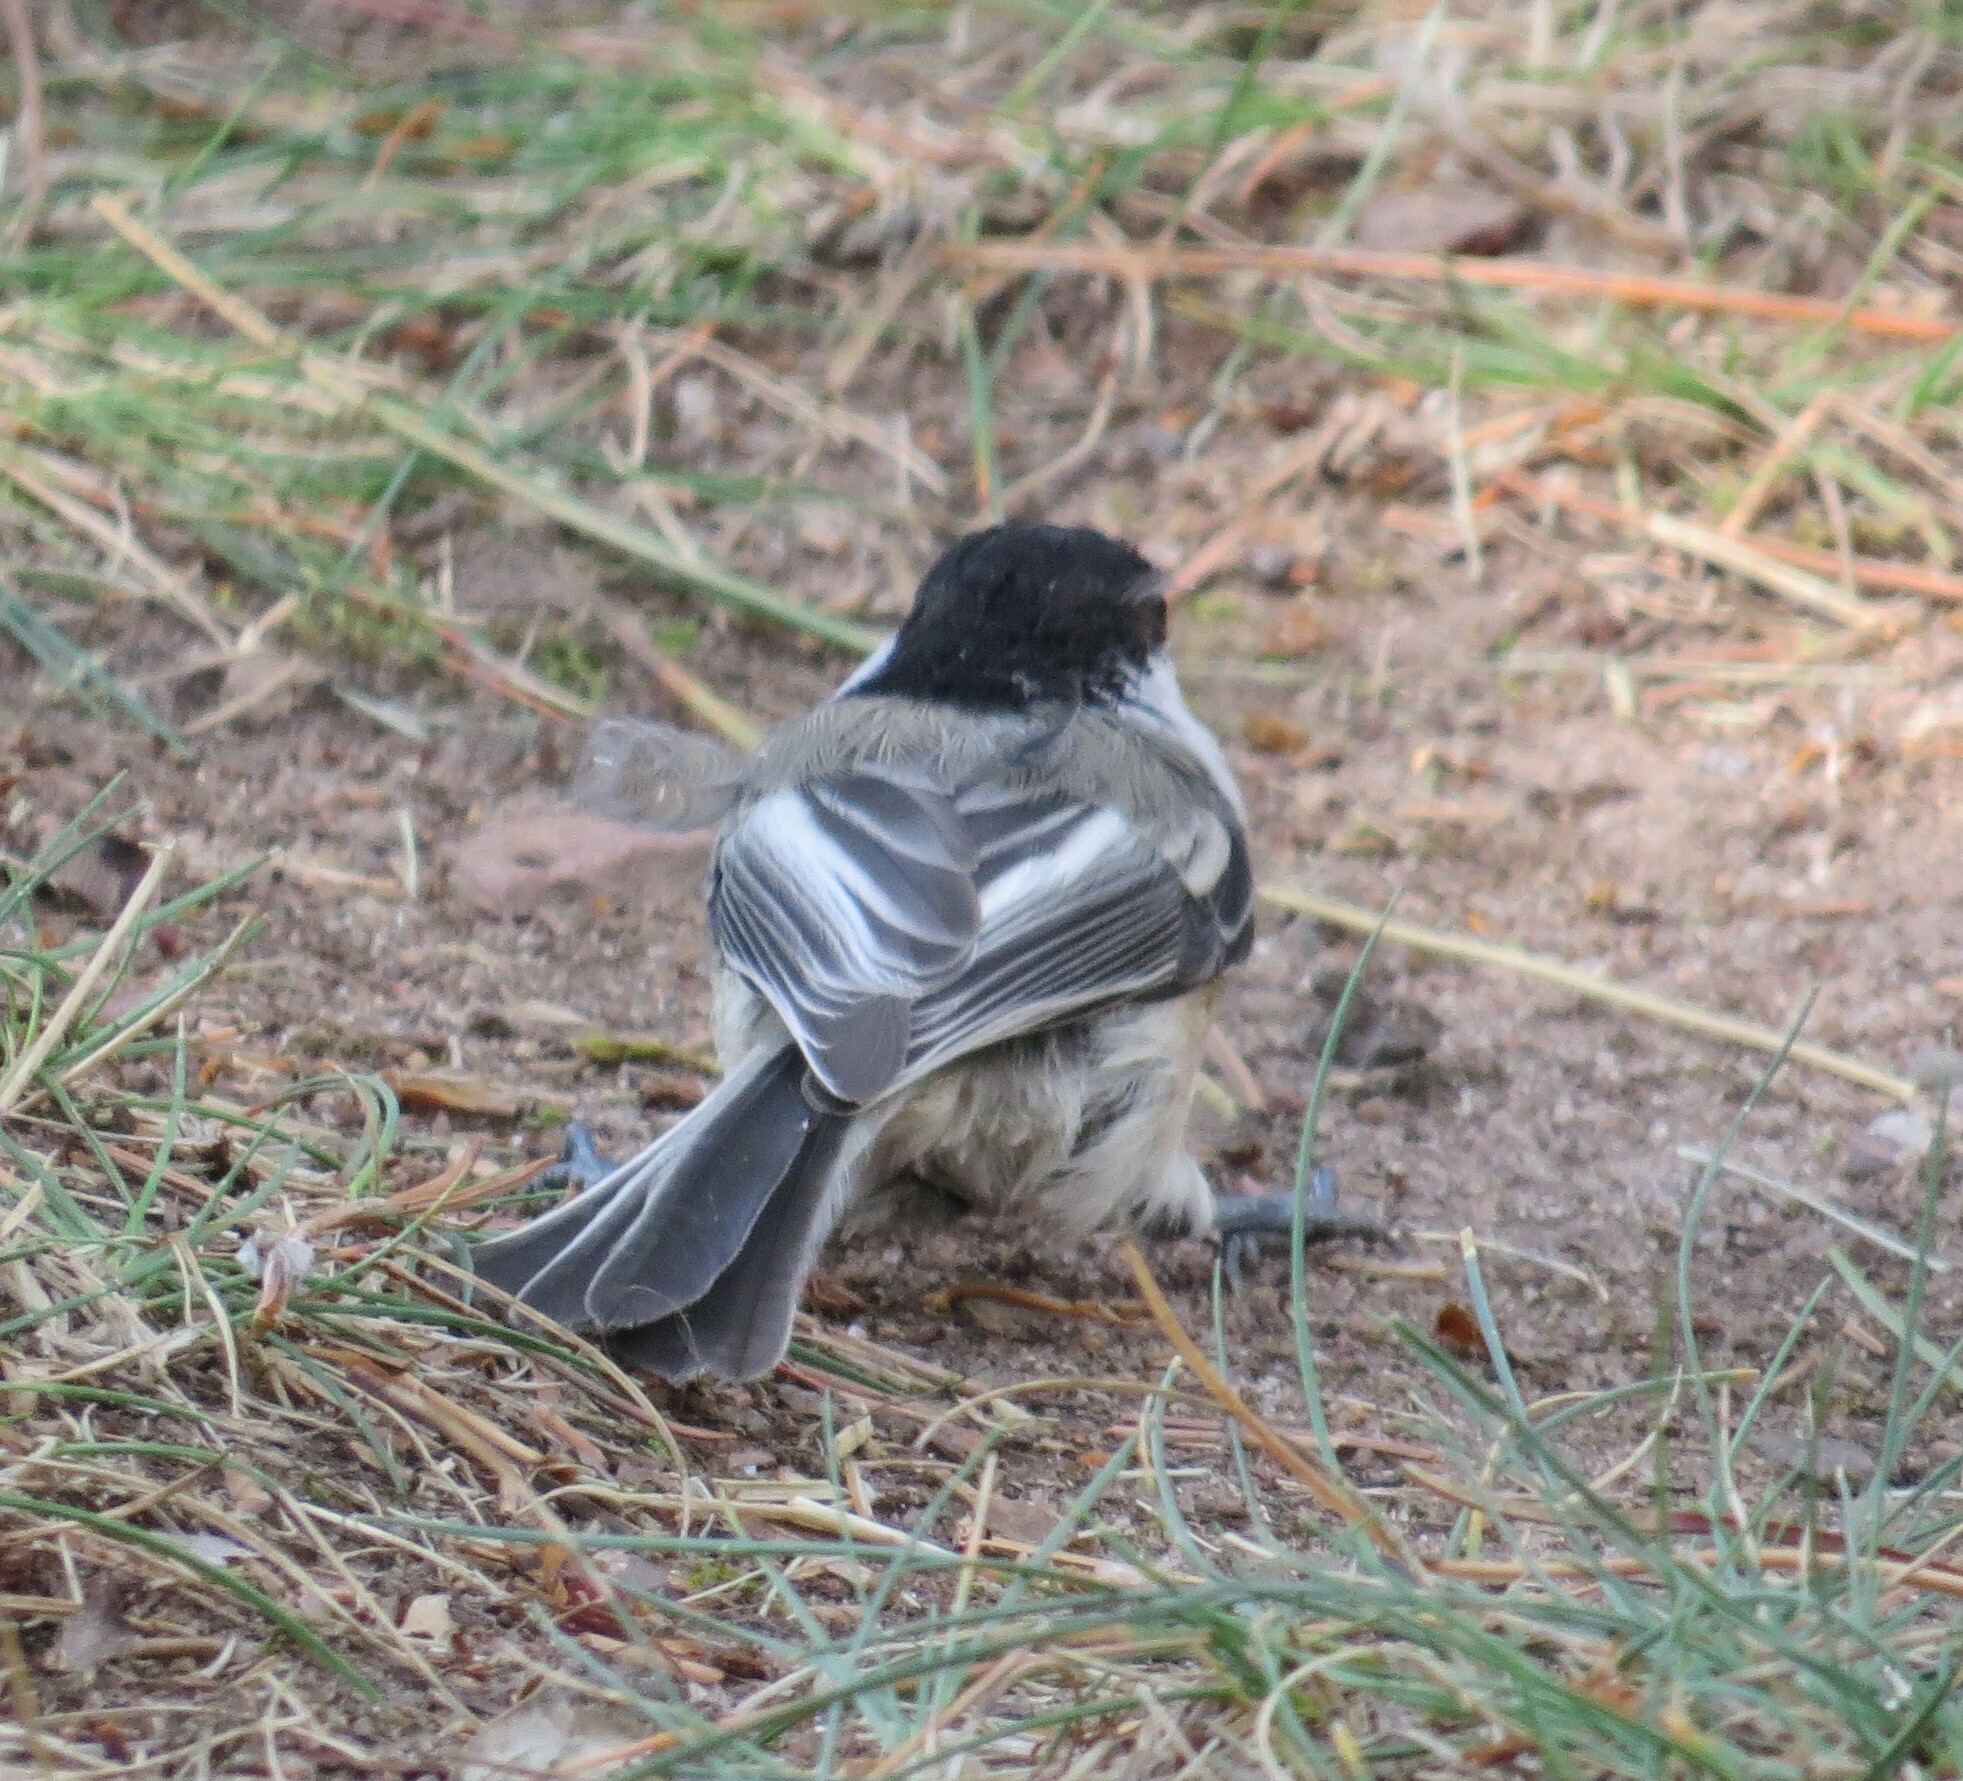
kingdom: Animalia
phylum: Chordata
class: Aves
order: Passeriformes
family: Paridae
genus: Poecile
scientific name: Poecile atricapillus
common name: Black-capped chickadee
